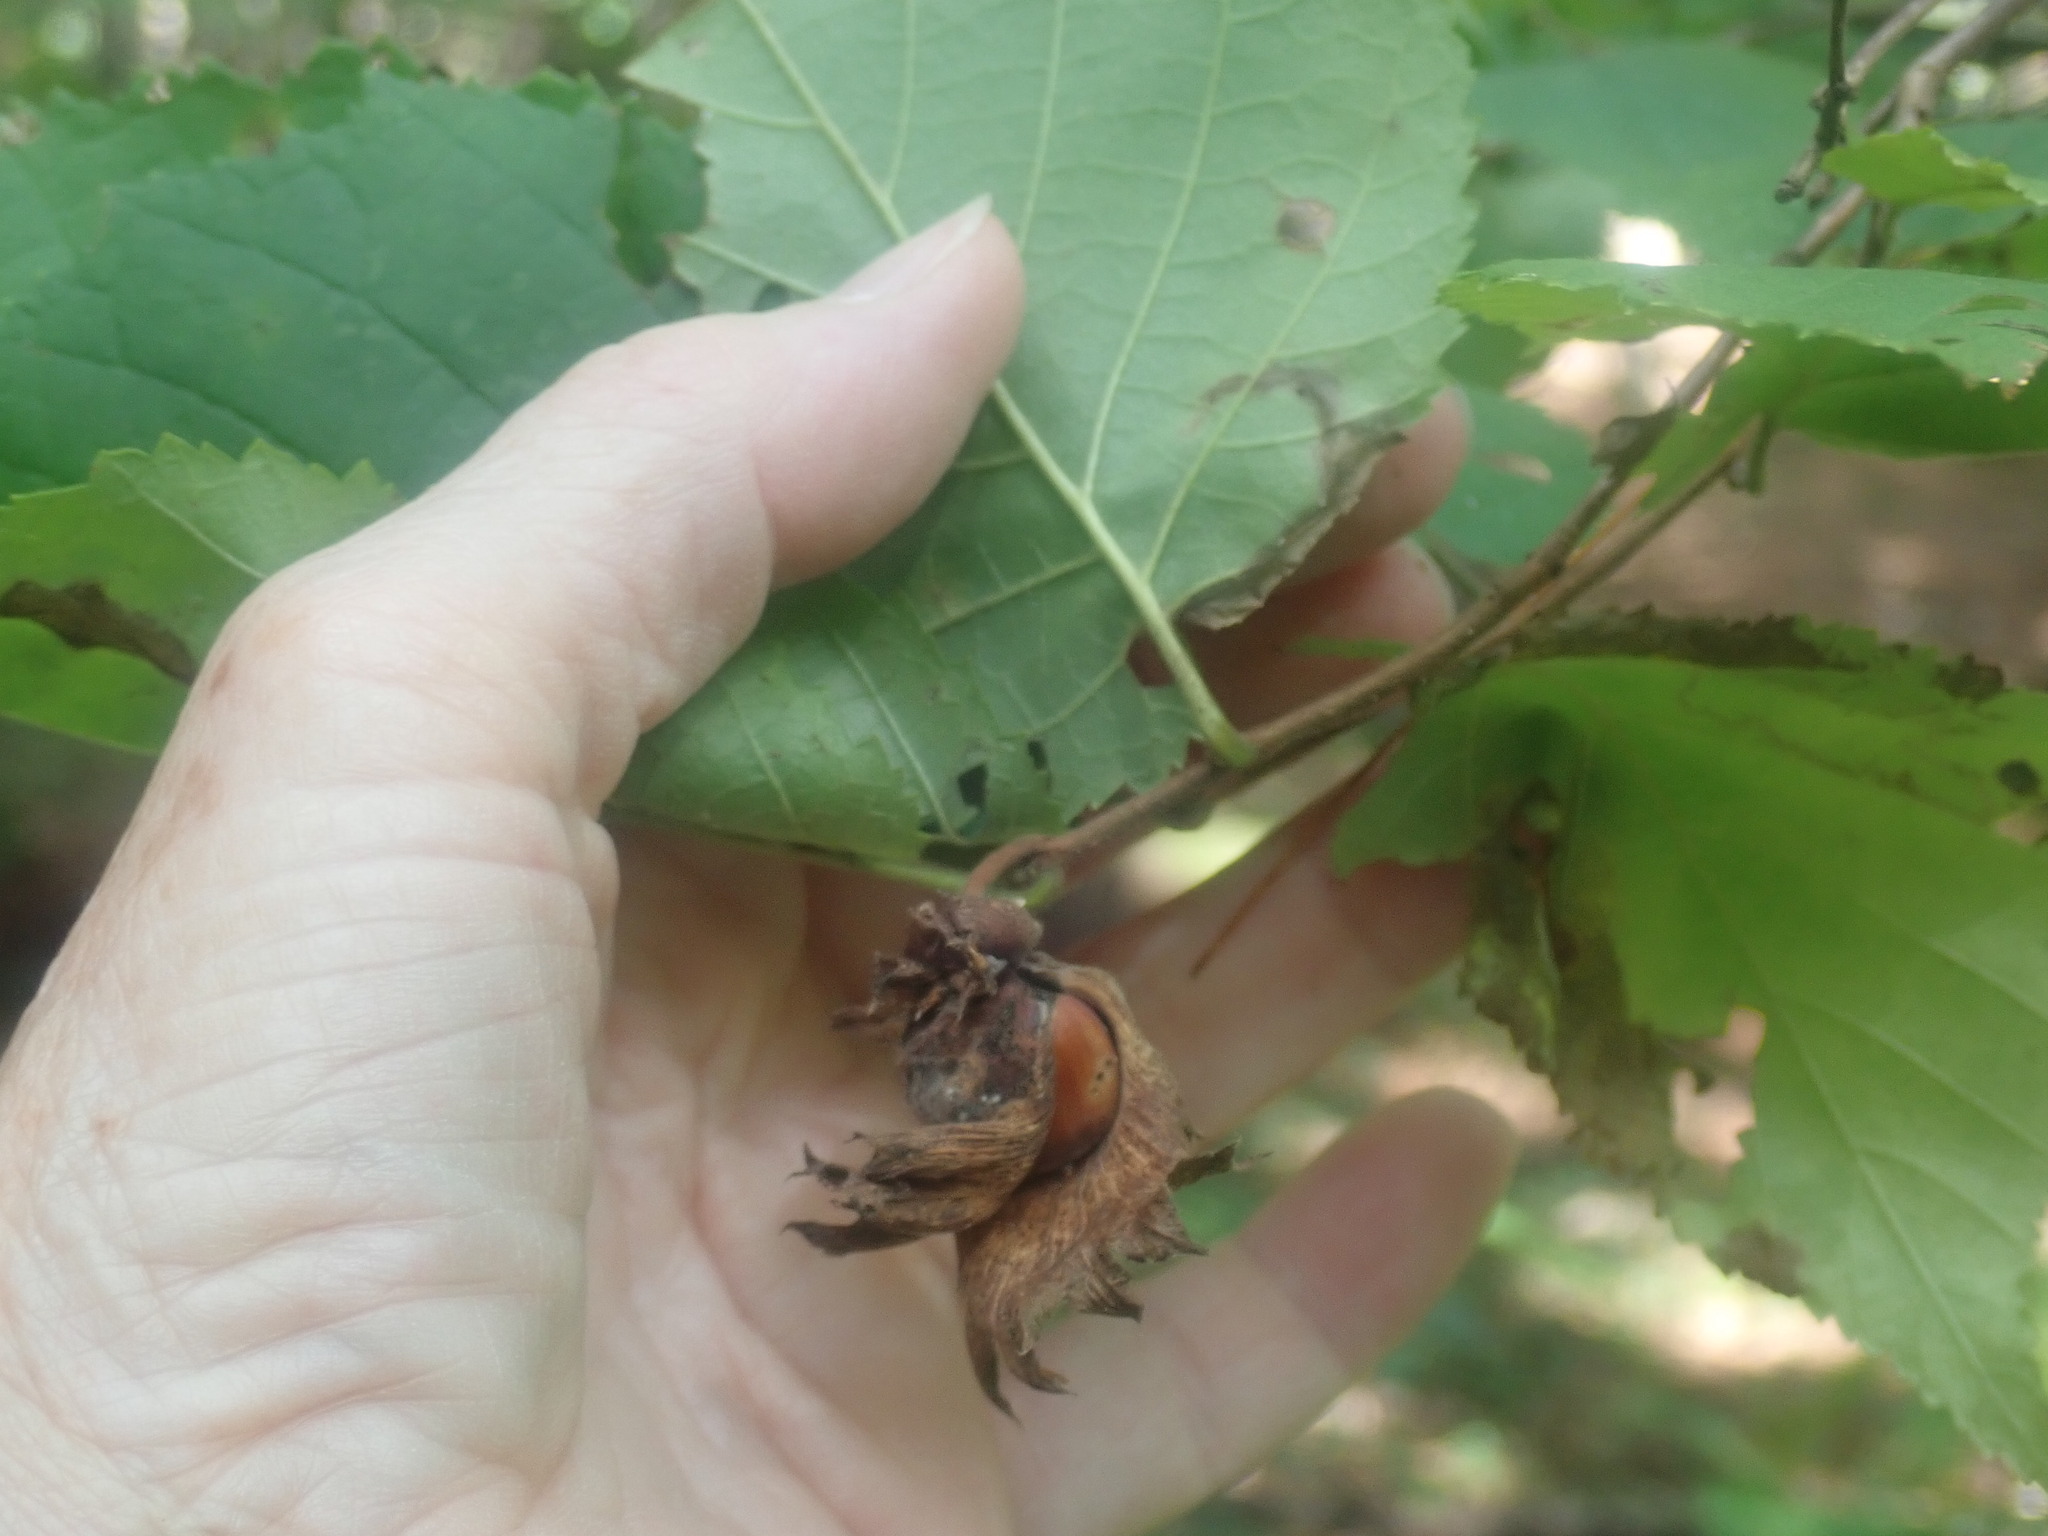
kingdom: Plantae
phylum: Tracheophyta
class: Magnoliopsida
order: Fagales
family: Betulaceae
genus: Corylus
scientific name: Corylus americana
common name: American hazel
